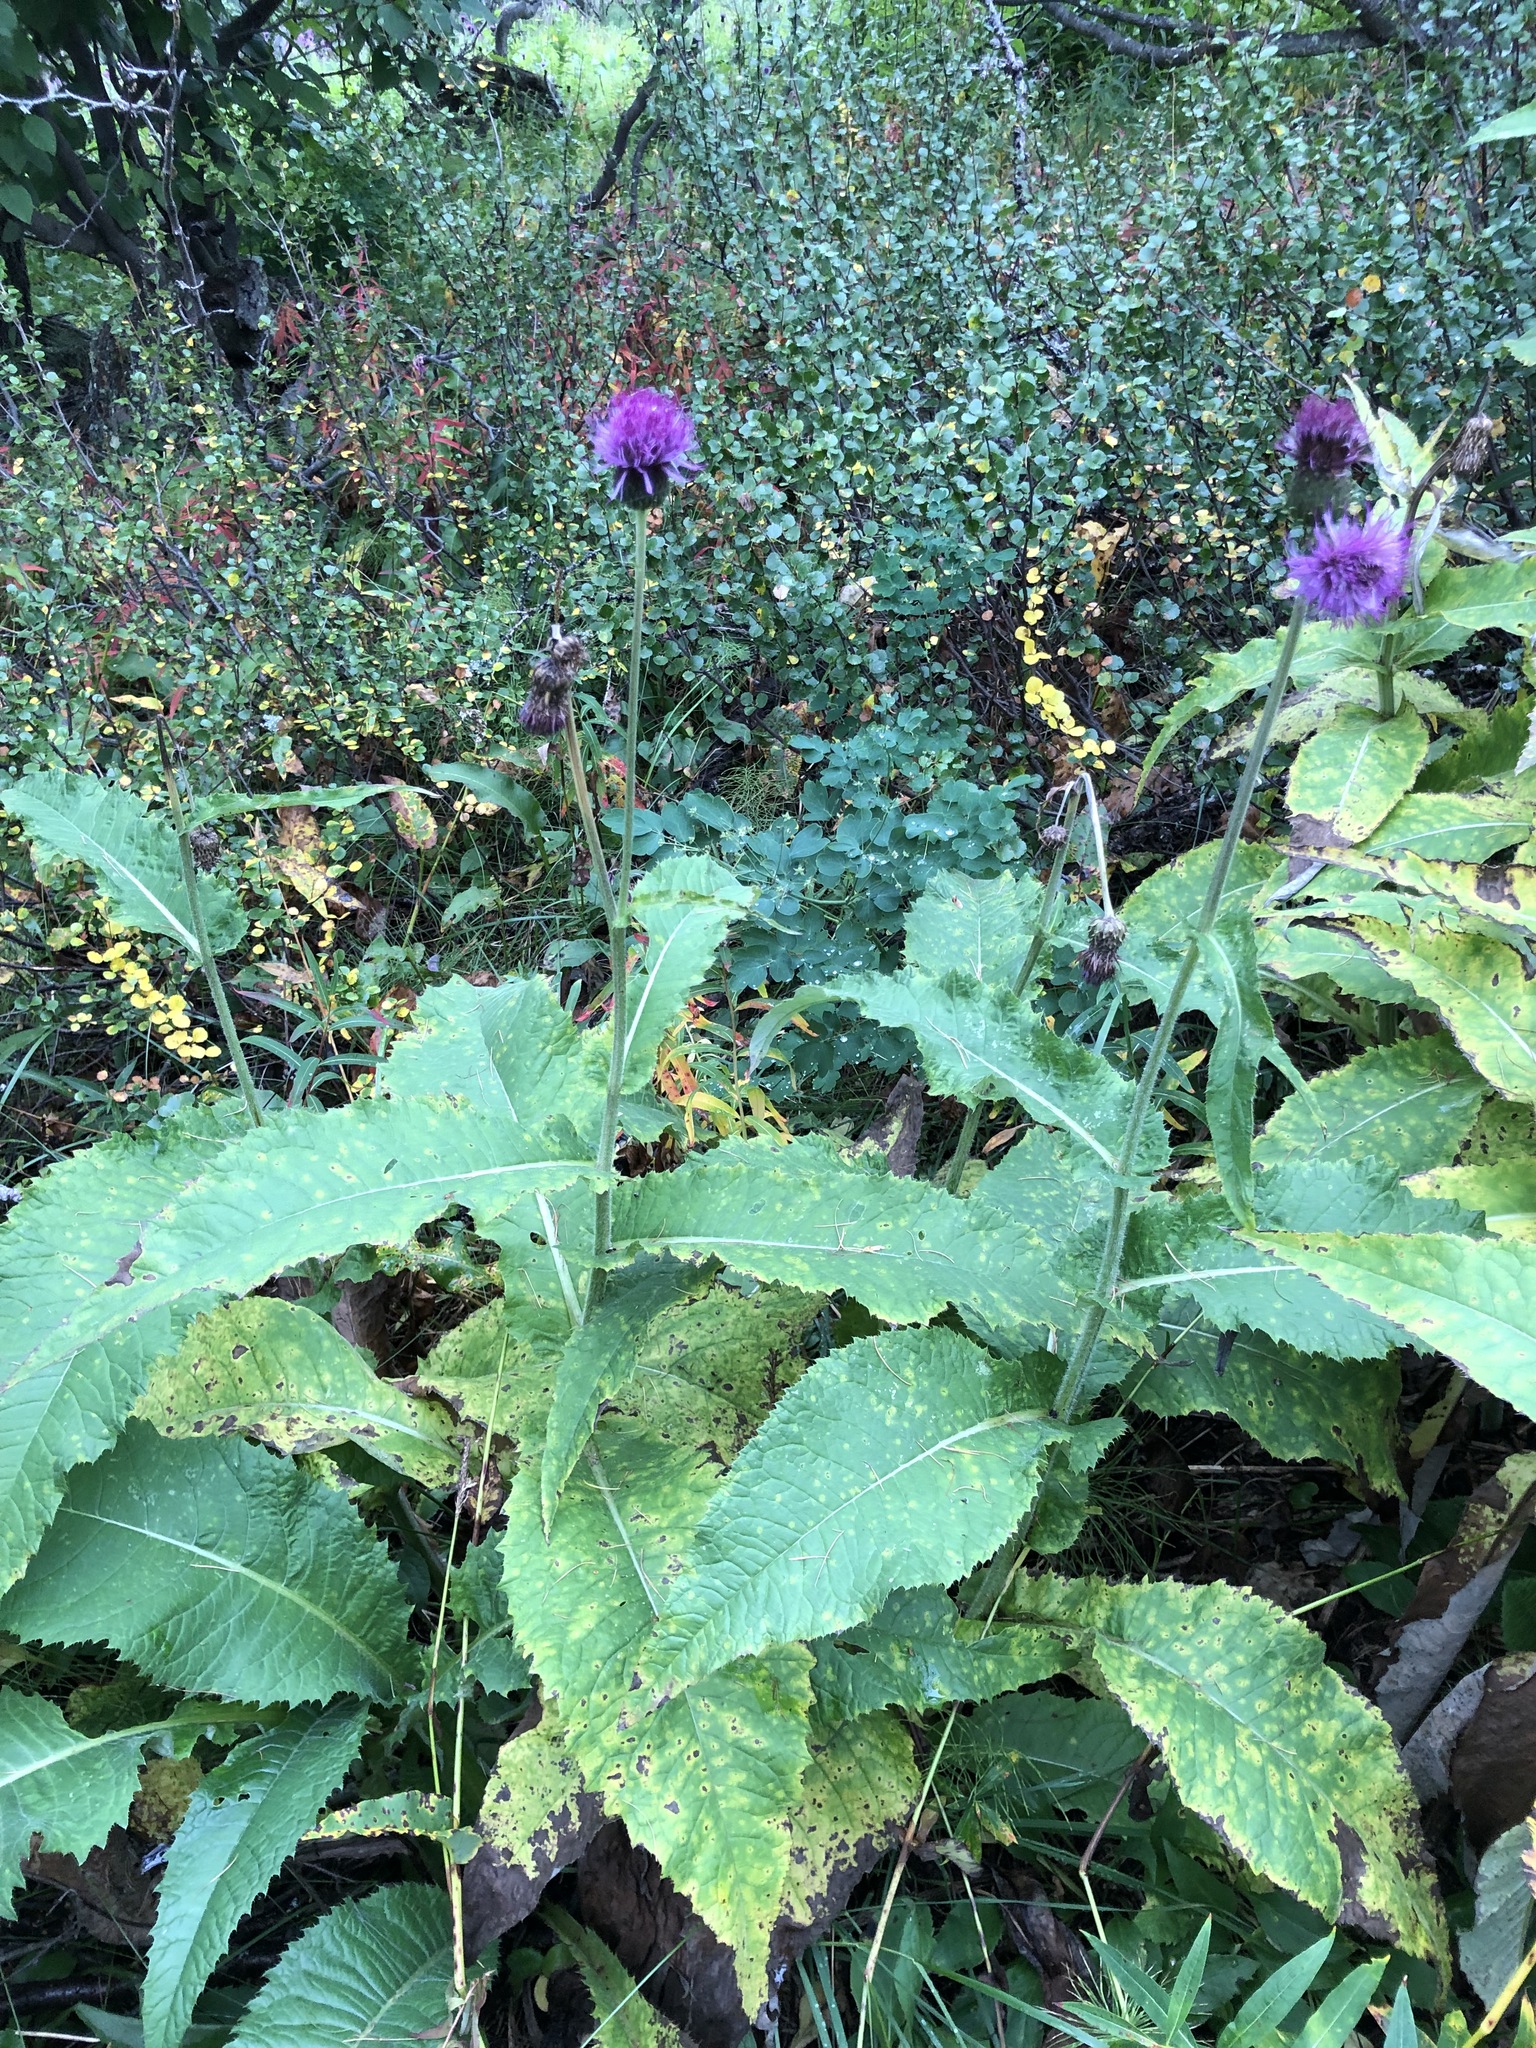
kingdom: Plantae
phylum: Tracheophyta
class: Magnoliopsida
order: Asterales
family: Asteraceae
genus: Cirsium
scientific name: Cirsium helenioides
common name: Melancholy thistle
